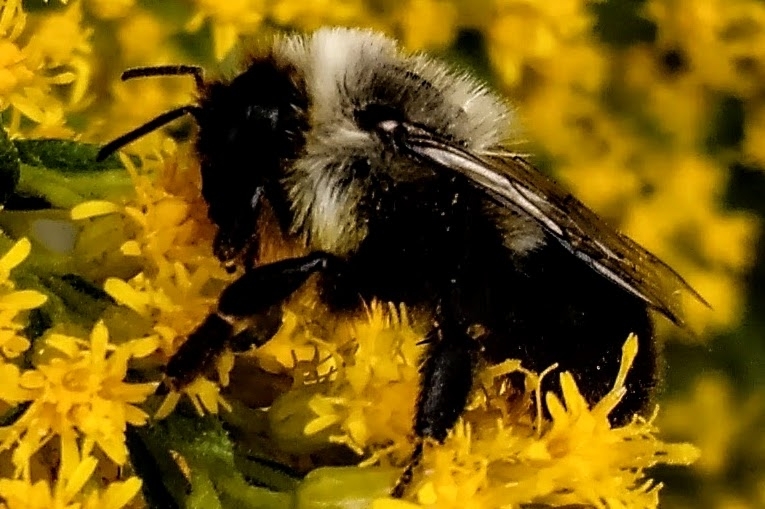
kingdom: Animalia
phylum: Arthropoda
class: Insecta
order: Hymenoptera
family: Apidae
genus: Bombus
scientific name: Bombus impatiens
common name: Common eastern bumble bee
